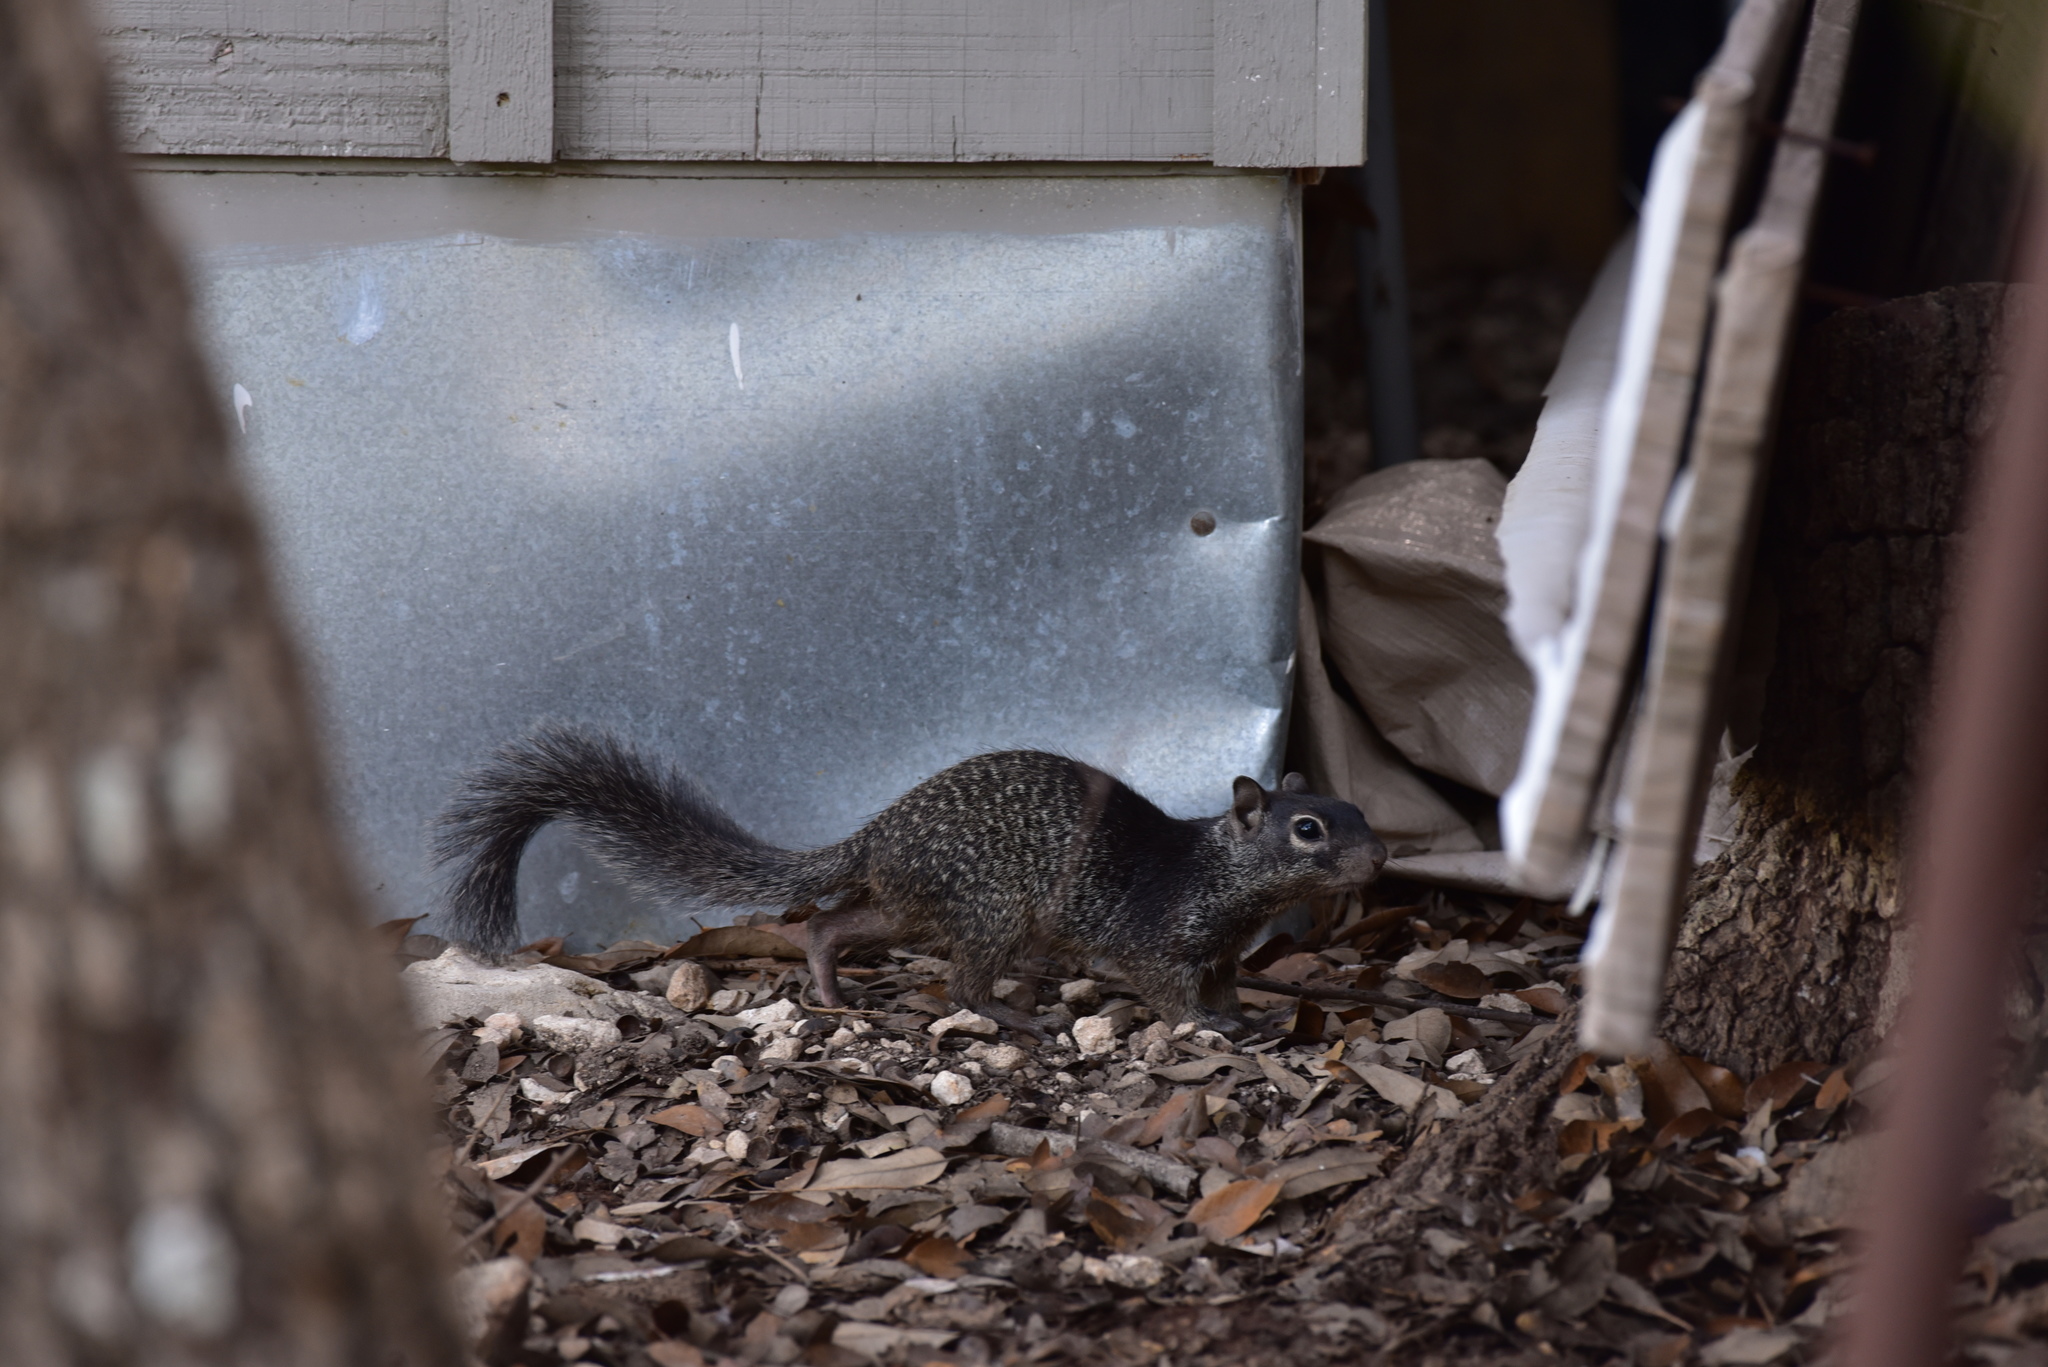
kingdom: Animalia
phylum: Chordata
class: Mammalia
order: Rodentia
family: Sciuridae
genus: Otospermophilus
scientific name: Otospermophilus variegatus
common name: Rock squirrel
